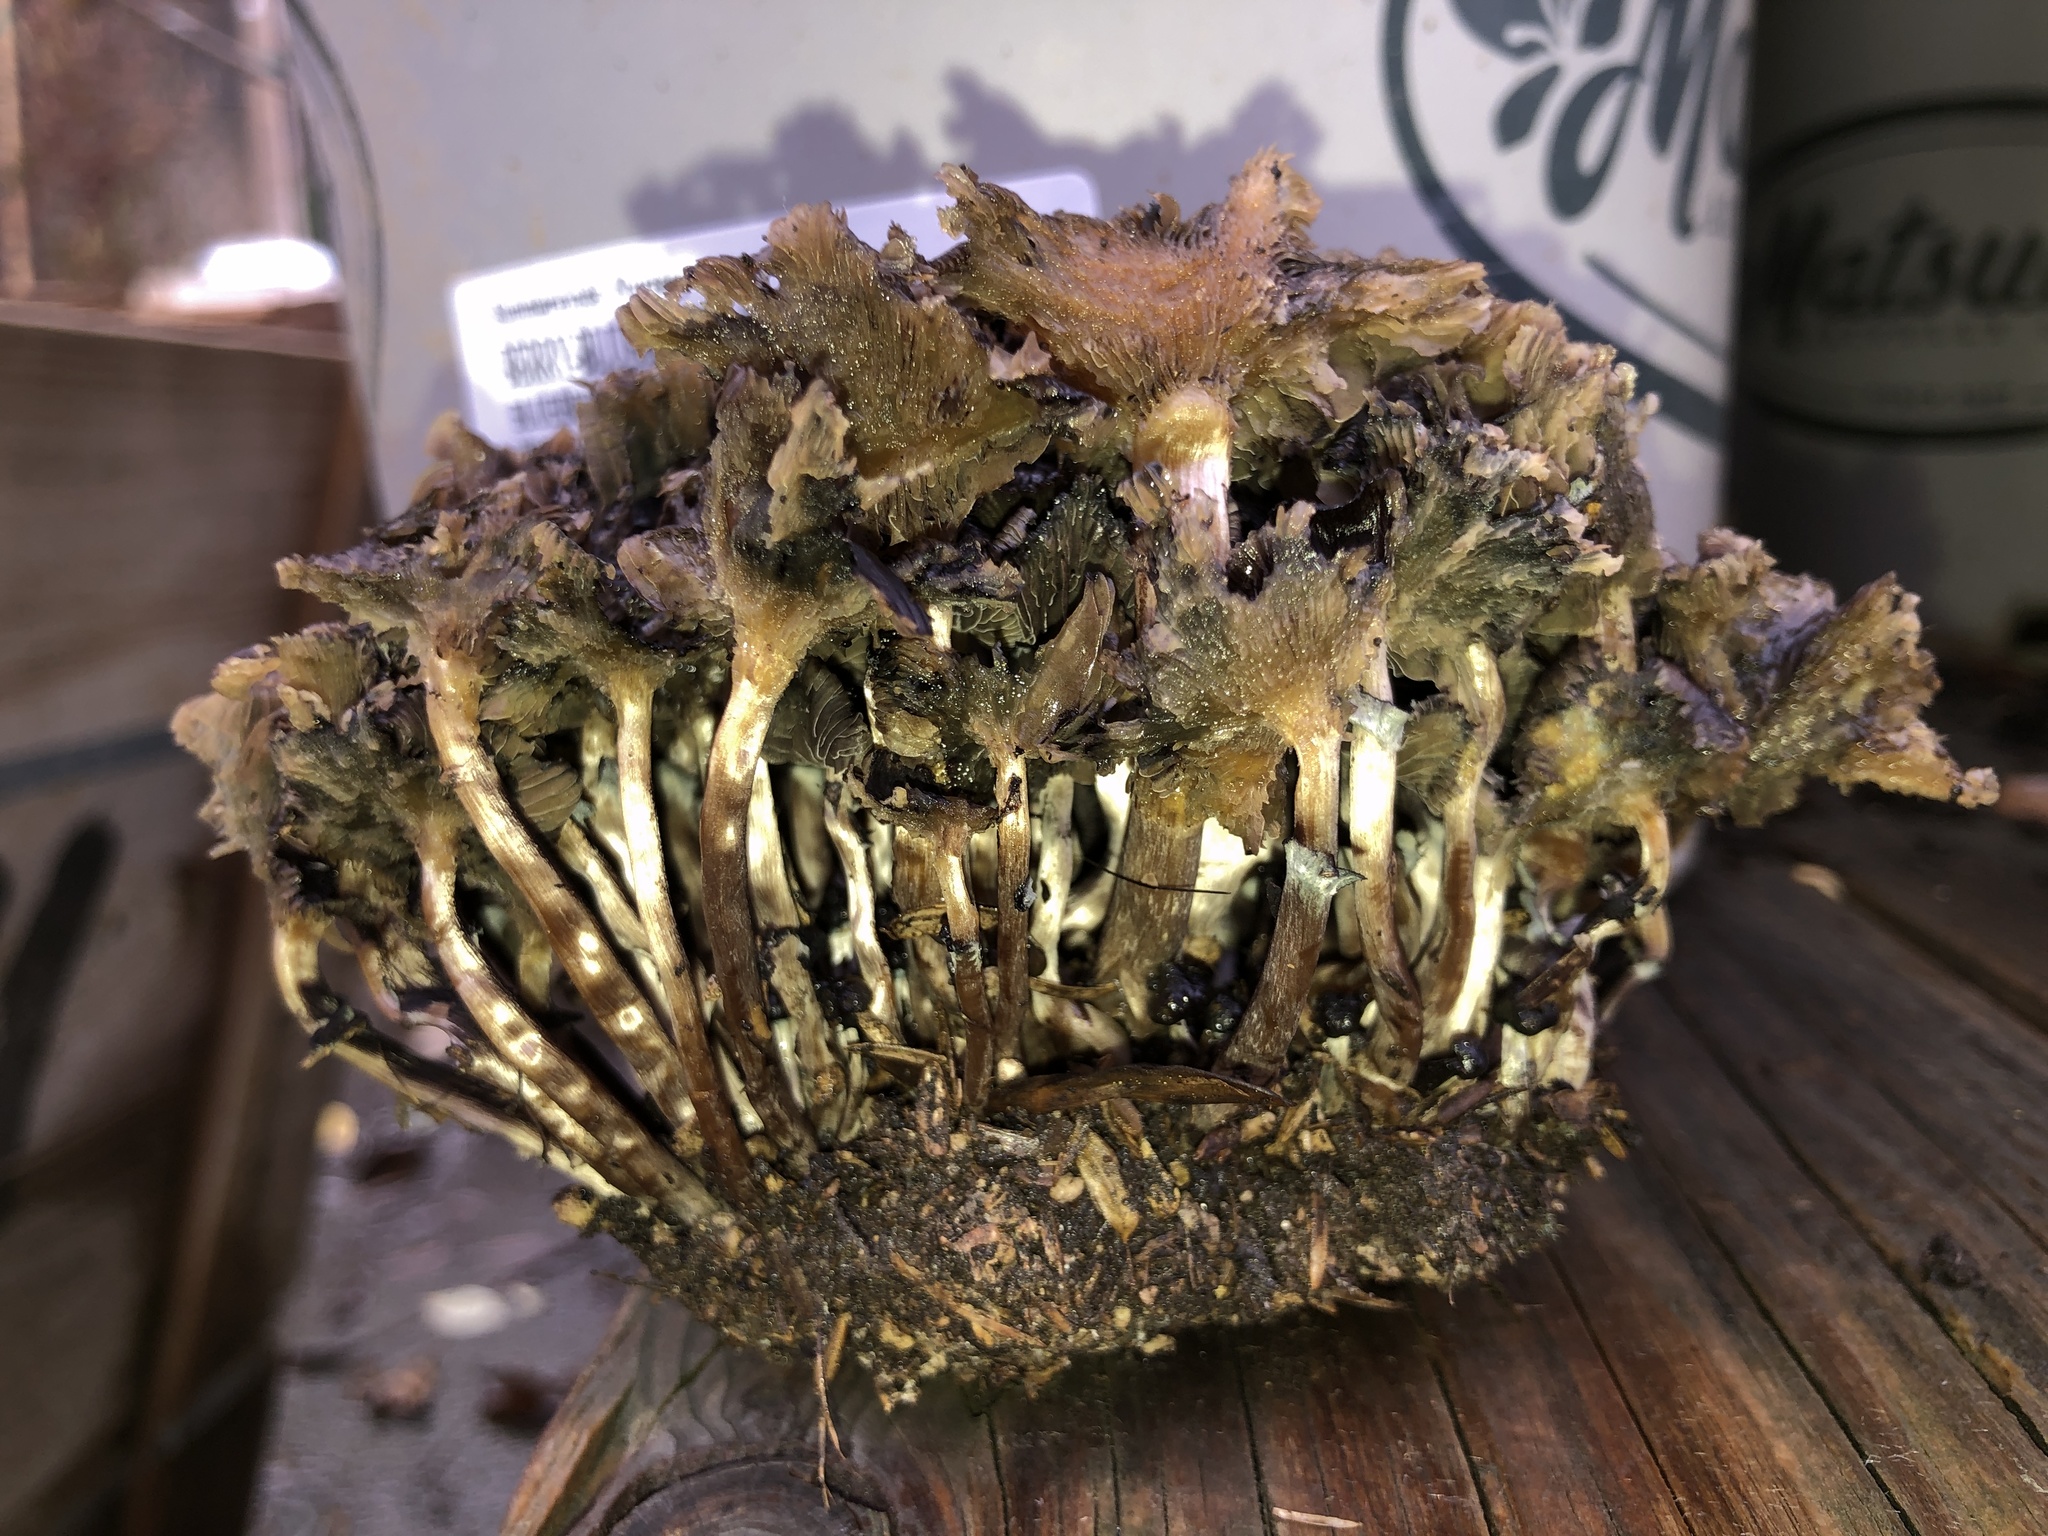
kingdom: Fungi
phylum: Basidiomycota
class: Agaricomycetes
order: Agaricales
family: Hymenogastraceae
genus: Psilocybe
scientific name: Psilocybe stuntzii
